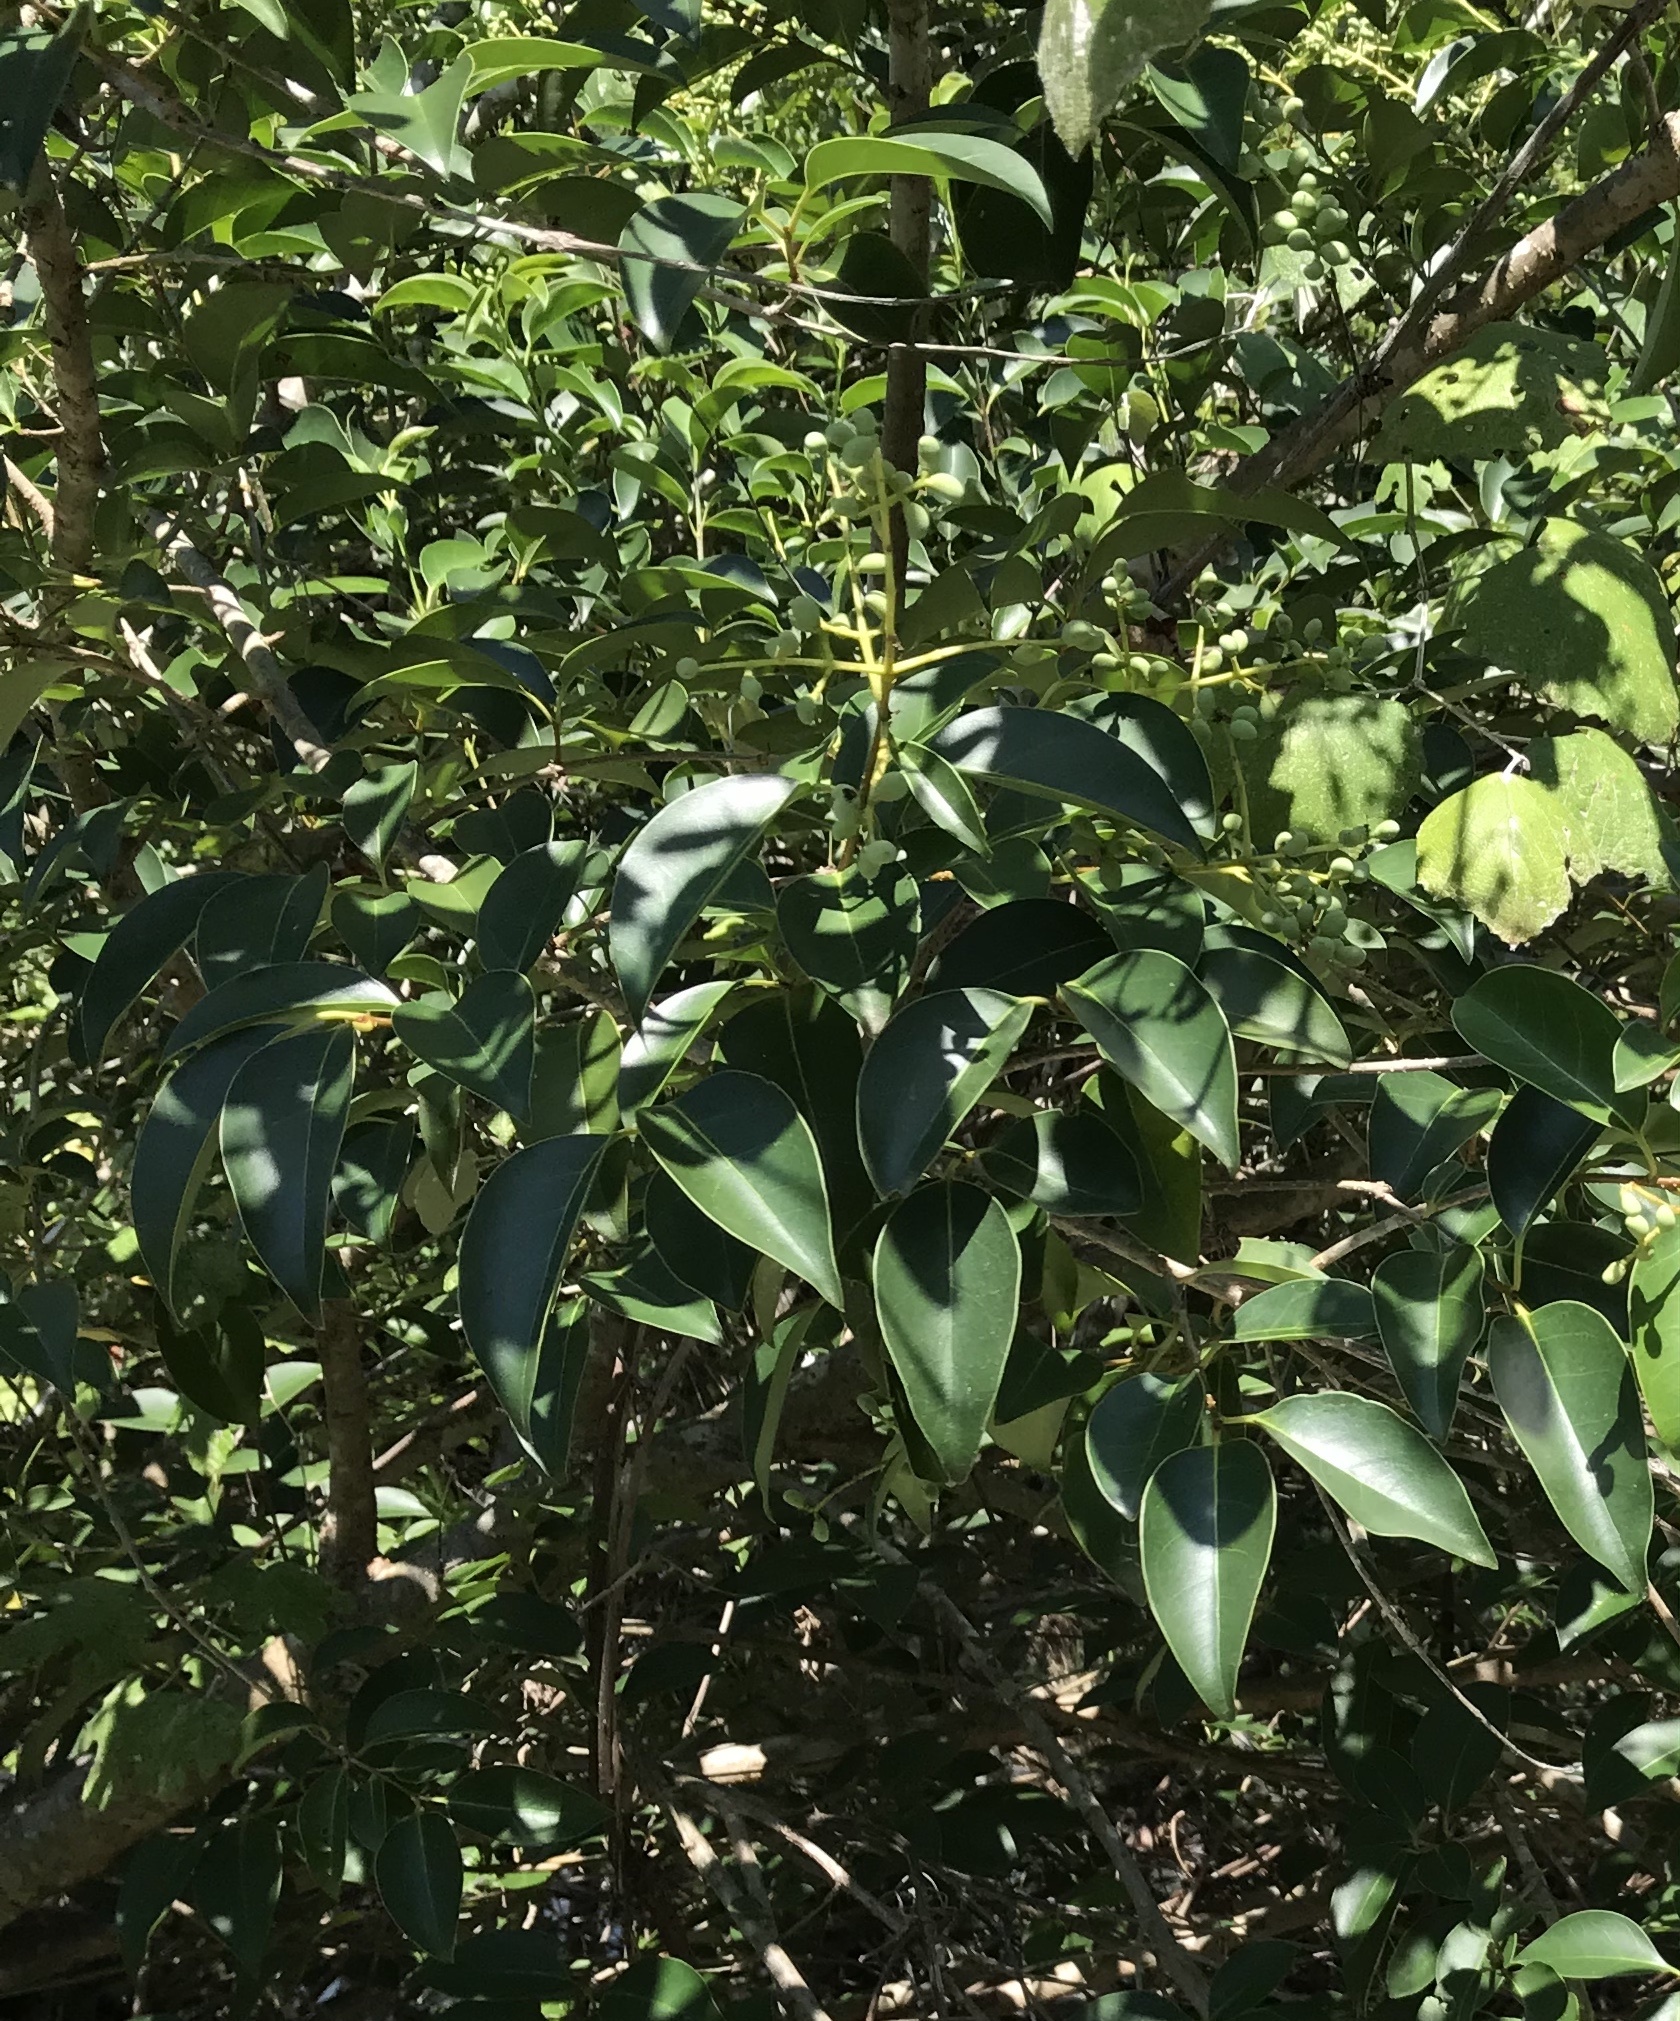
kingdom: Plantae
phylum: Tracheophyta
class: Magnoliopsida
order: Lamiales
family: Oleaceae
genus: Ligustrum
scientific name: Ligustrum lucidum
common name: Glossy privet
